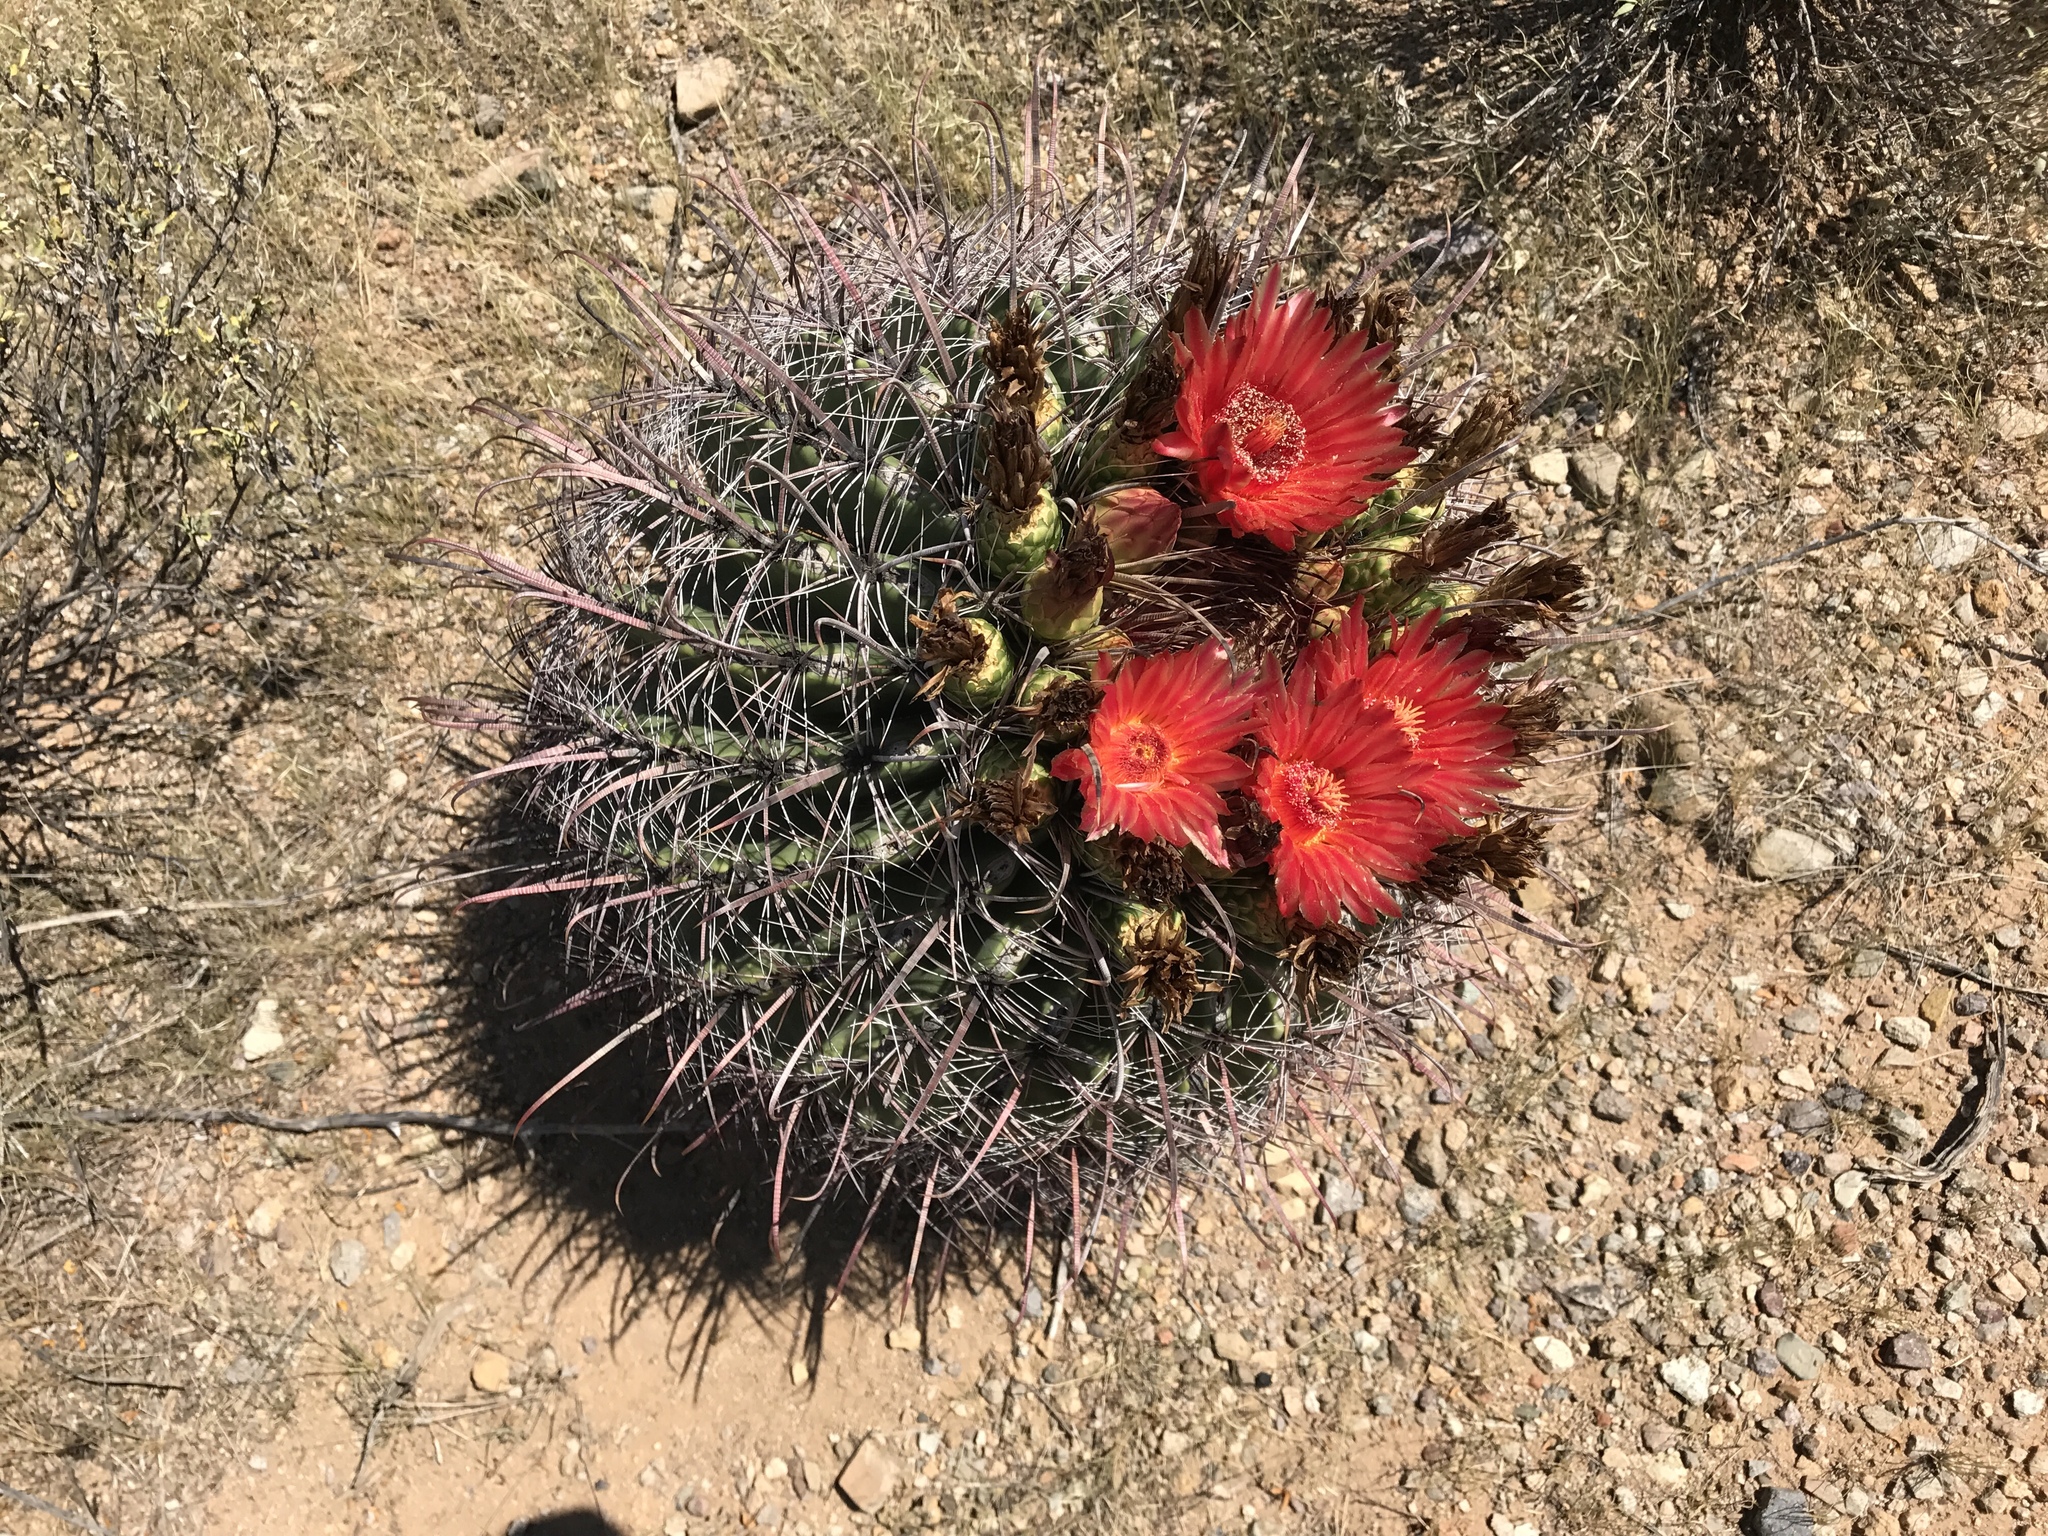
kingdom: Plantae
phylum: Tracheophyta
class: Magnoliopsida
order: Caryophyllales
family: Cactaceae
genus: Ferocactus
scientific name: Ferocactus wislizeni
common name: Candy barrel cactus
